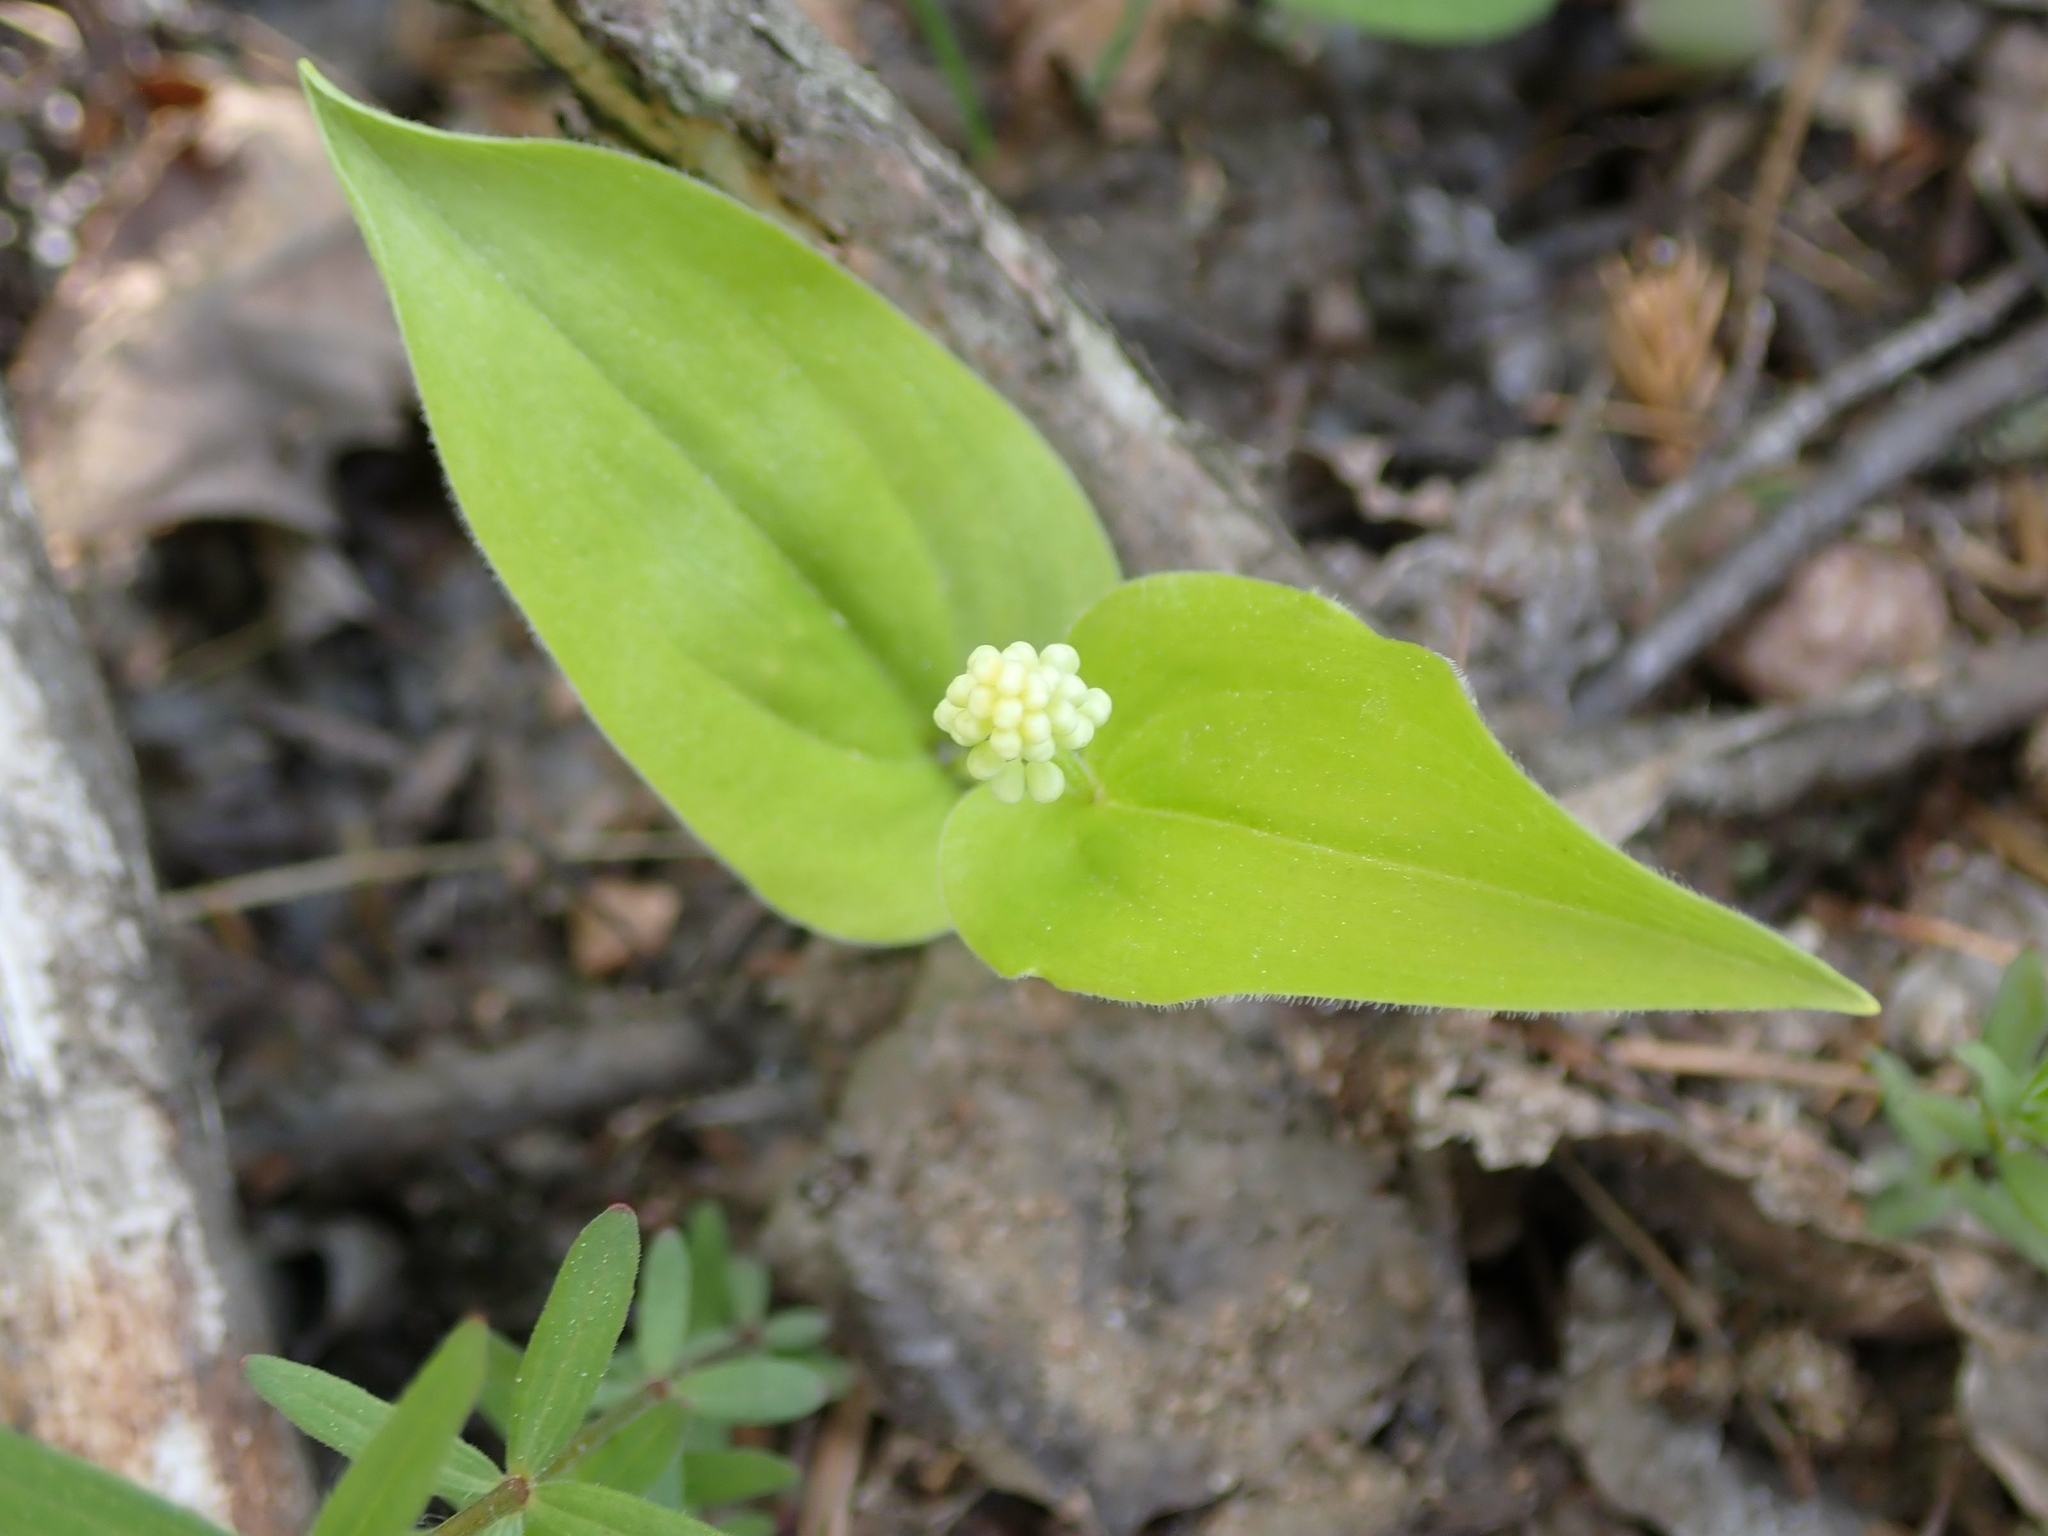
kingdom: Plantae
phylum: Tracheophyta
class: Liliopsida
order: Asparagales
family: Asparagaceae
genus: Maianthemum
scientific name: Maianthemum canadense
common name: False lily-of-the-valley
